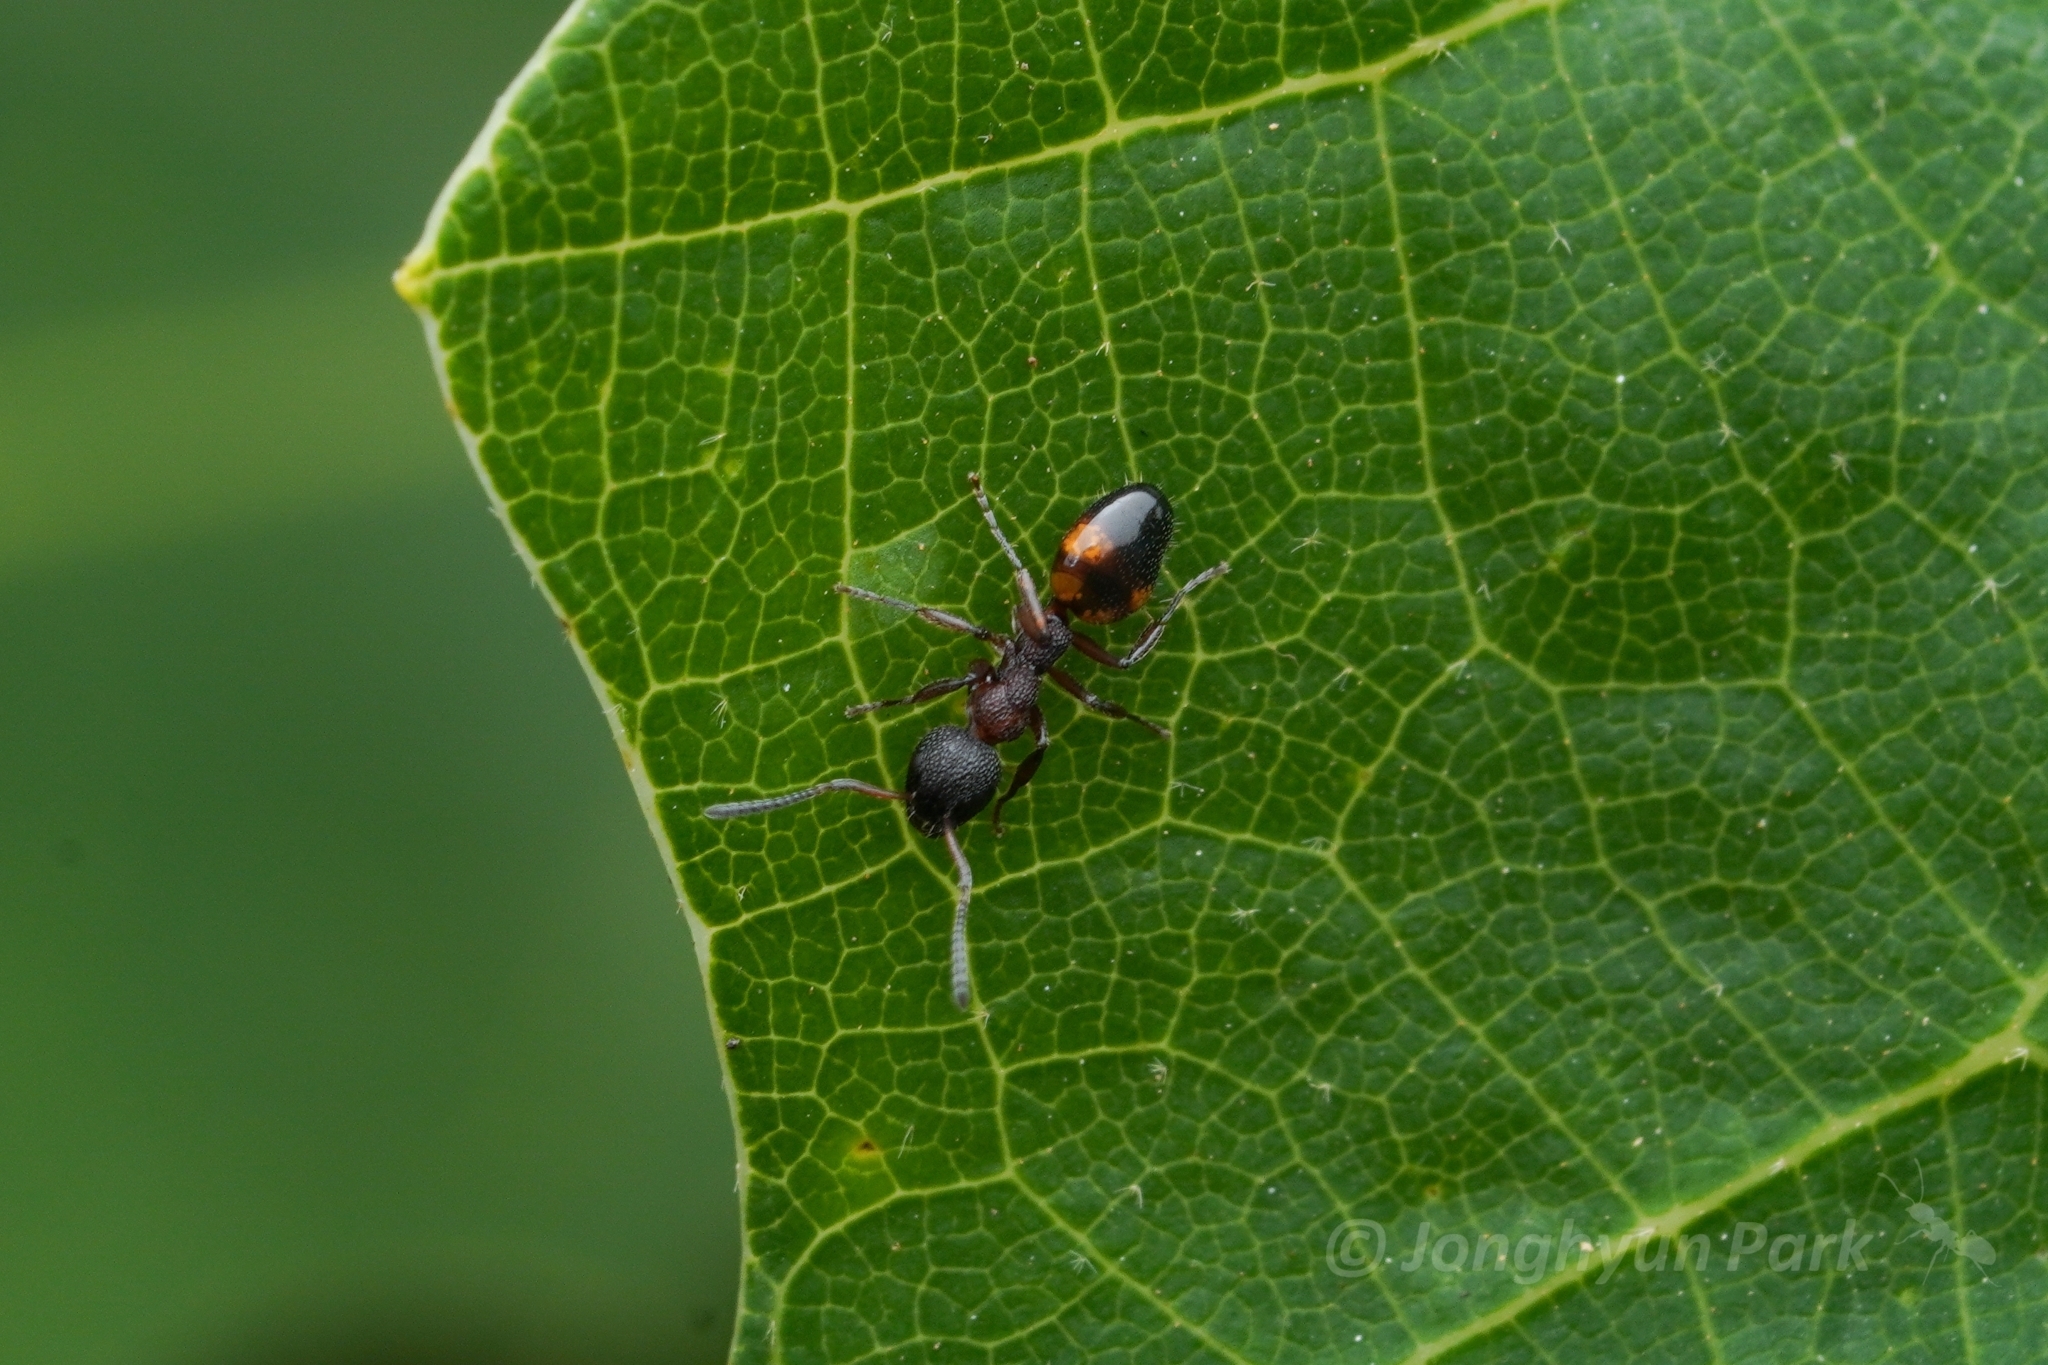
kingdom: Animalia
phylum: Arthropoda
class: Insecta
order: Hymenoptera
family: Formicidae
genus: Dolichoderus
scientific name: Dolichoderus plagiatus
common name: Mottled dolichoderus
